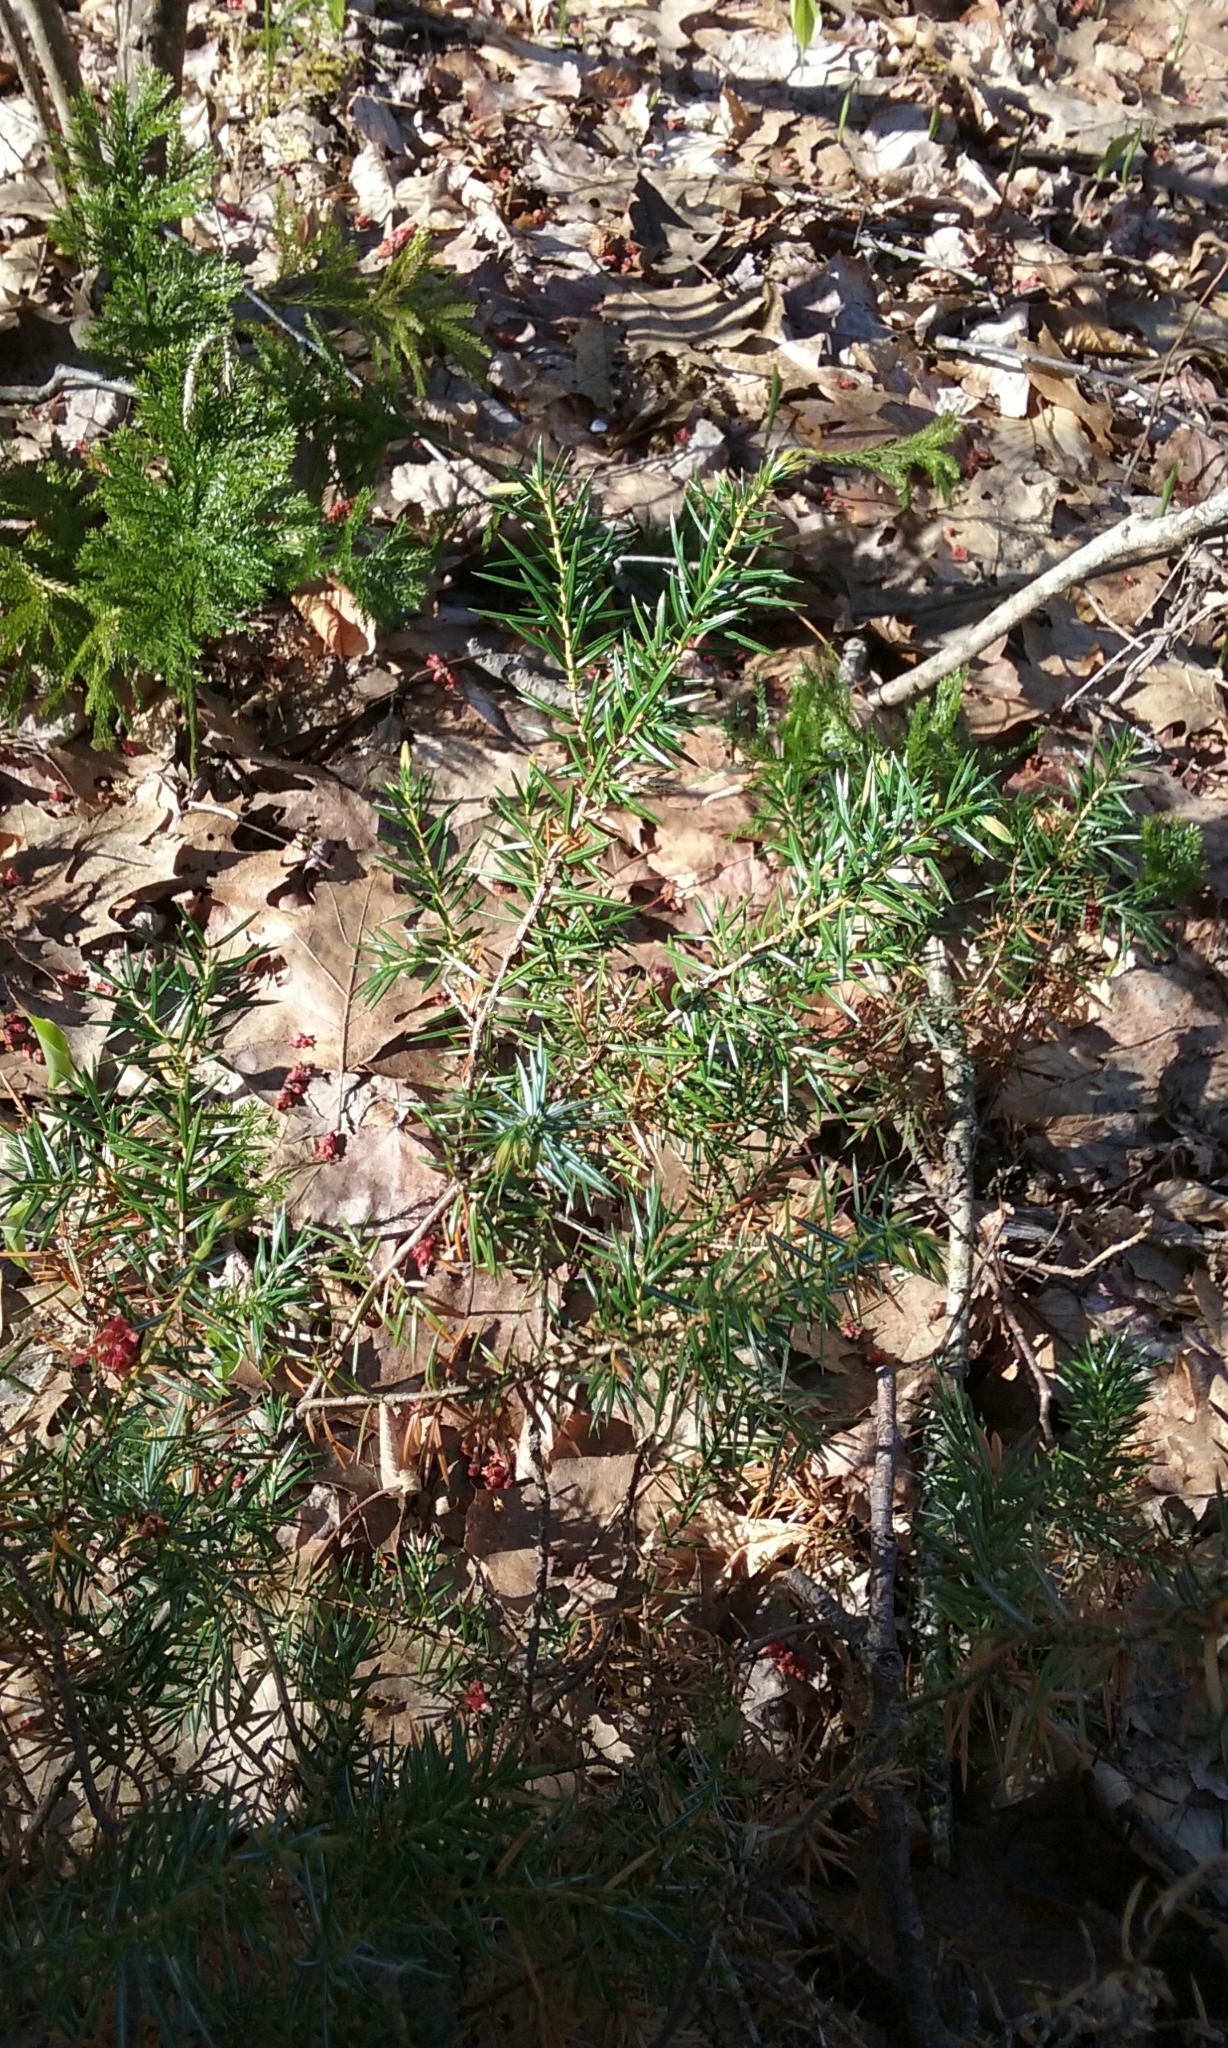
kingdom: Plantae
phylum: Tracheophyta
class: Pinopsida
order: Pinales
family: Cupressaceae
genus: Juniperus
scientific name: Juniperus communis
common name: Common juniper
